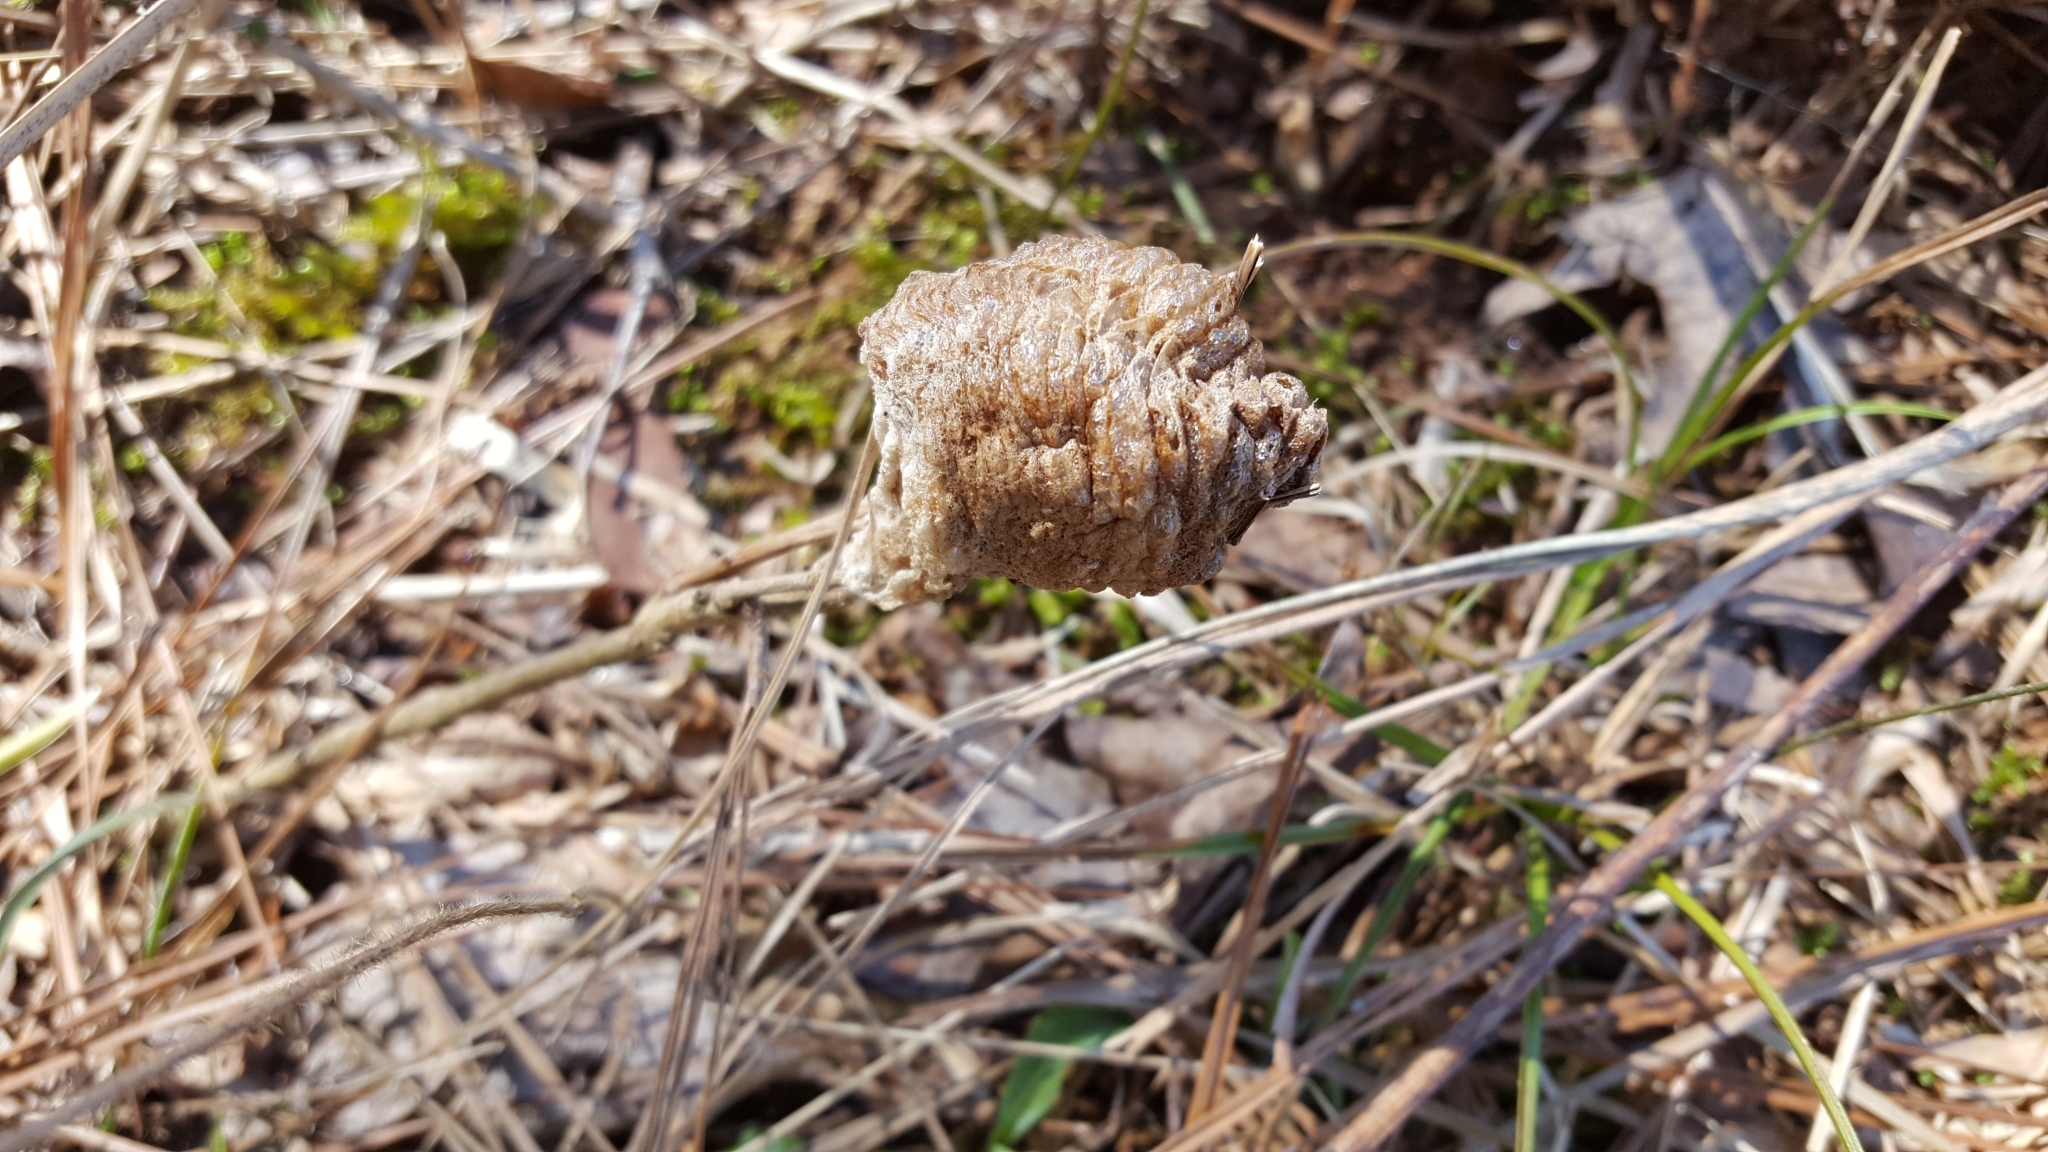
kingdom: Animalia
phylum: Arthropoda
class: Insecta
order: Mantodea
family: Mantidae
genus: Tenodera
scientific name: Tenodera sinensis
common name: Chinese mantis
